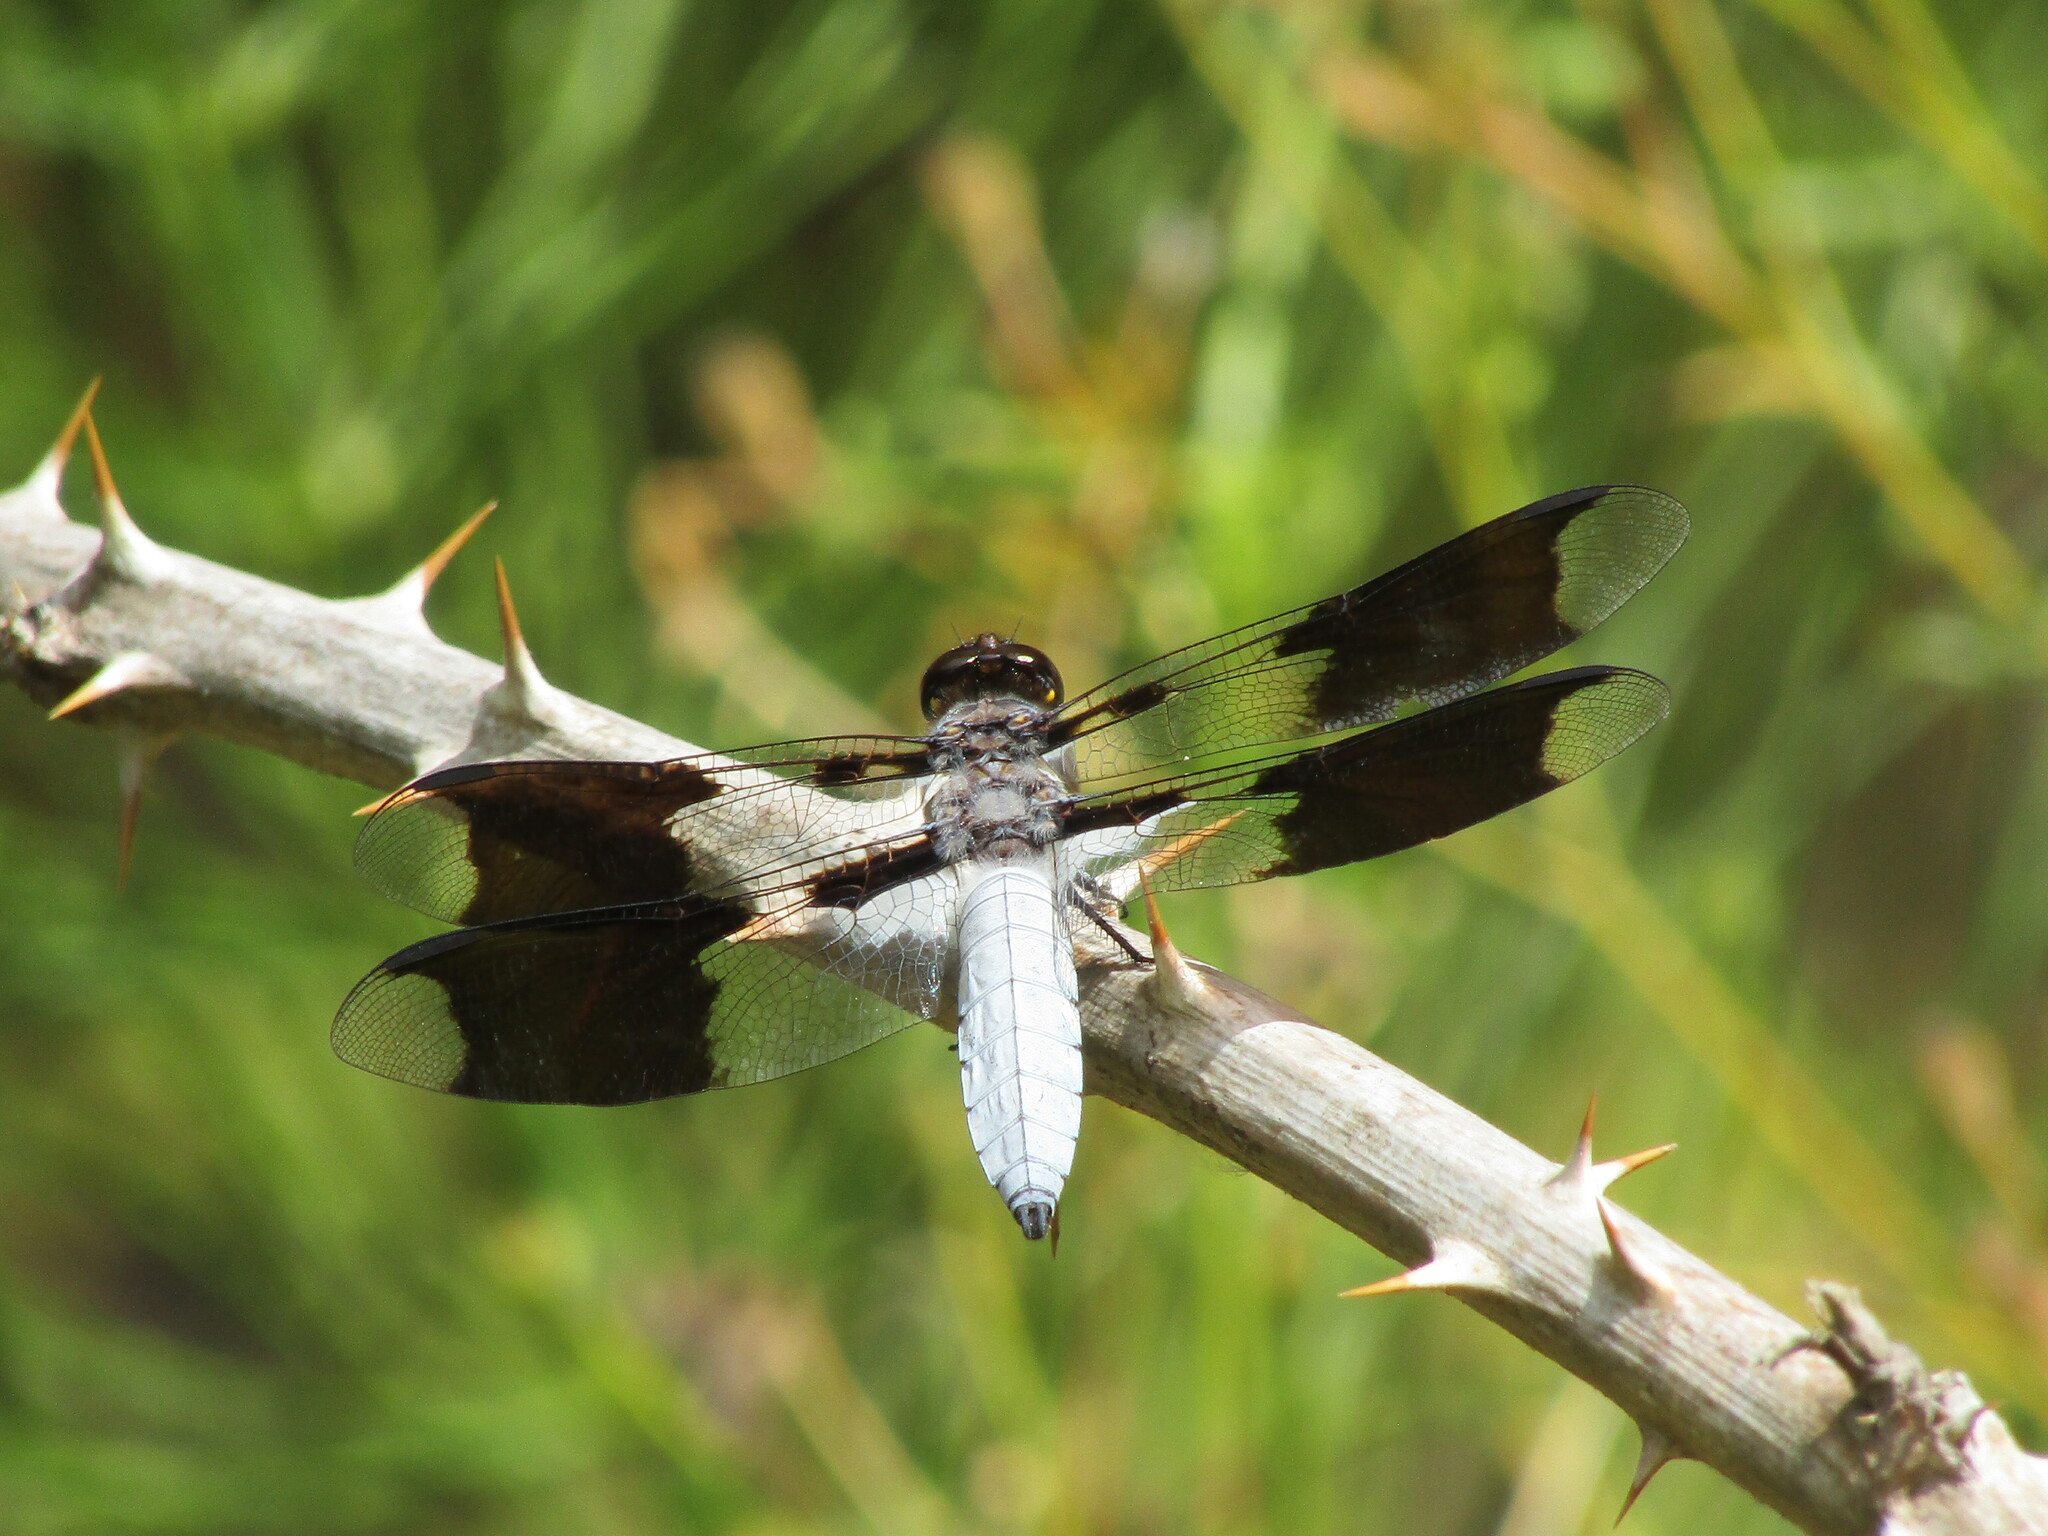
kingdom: Animalia
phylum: Arthropoda
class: Insecta
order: Odonata
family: Libellulidae
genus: Plathemis
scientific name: Plathemis lydia
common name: Common whitetail
